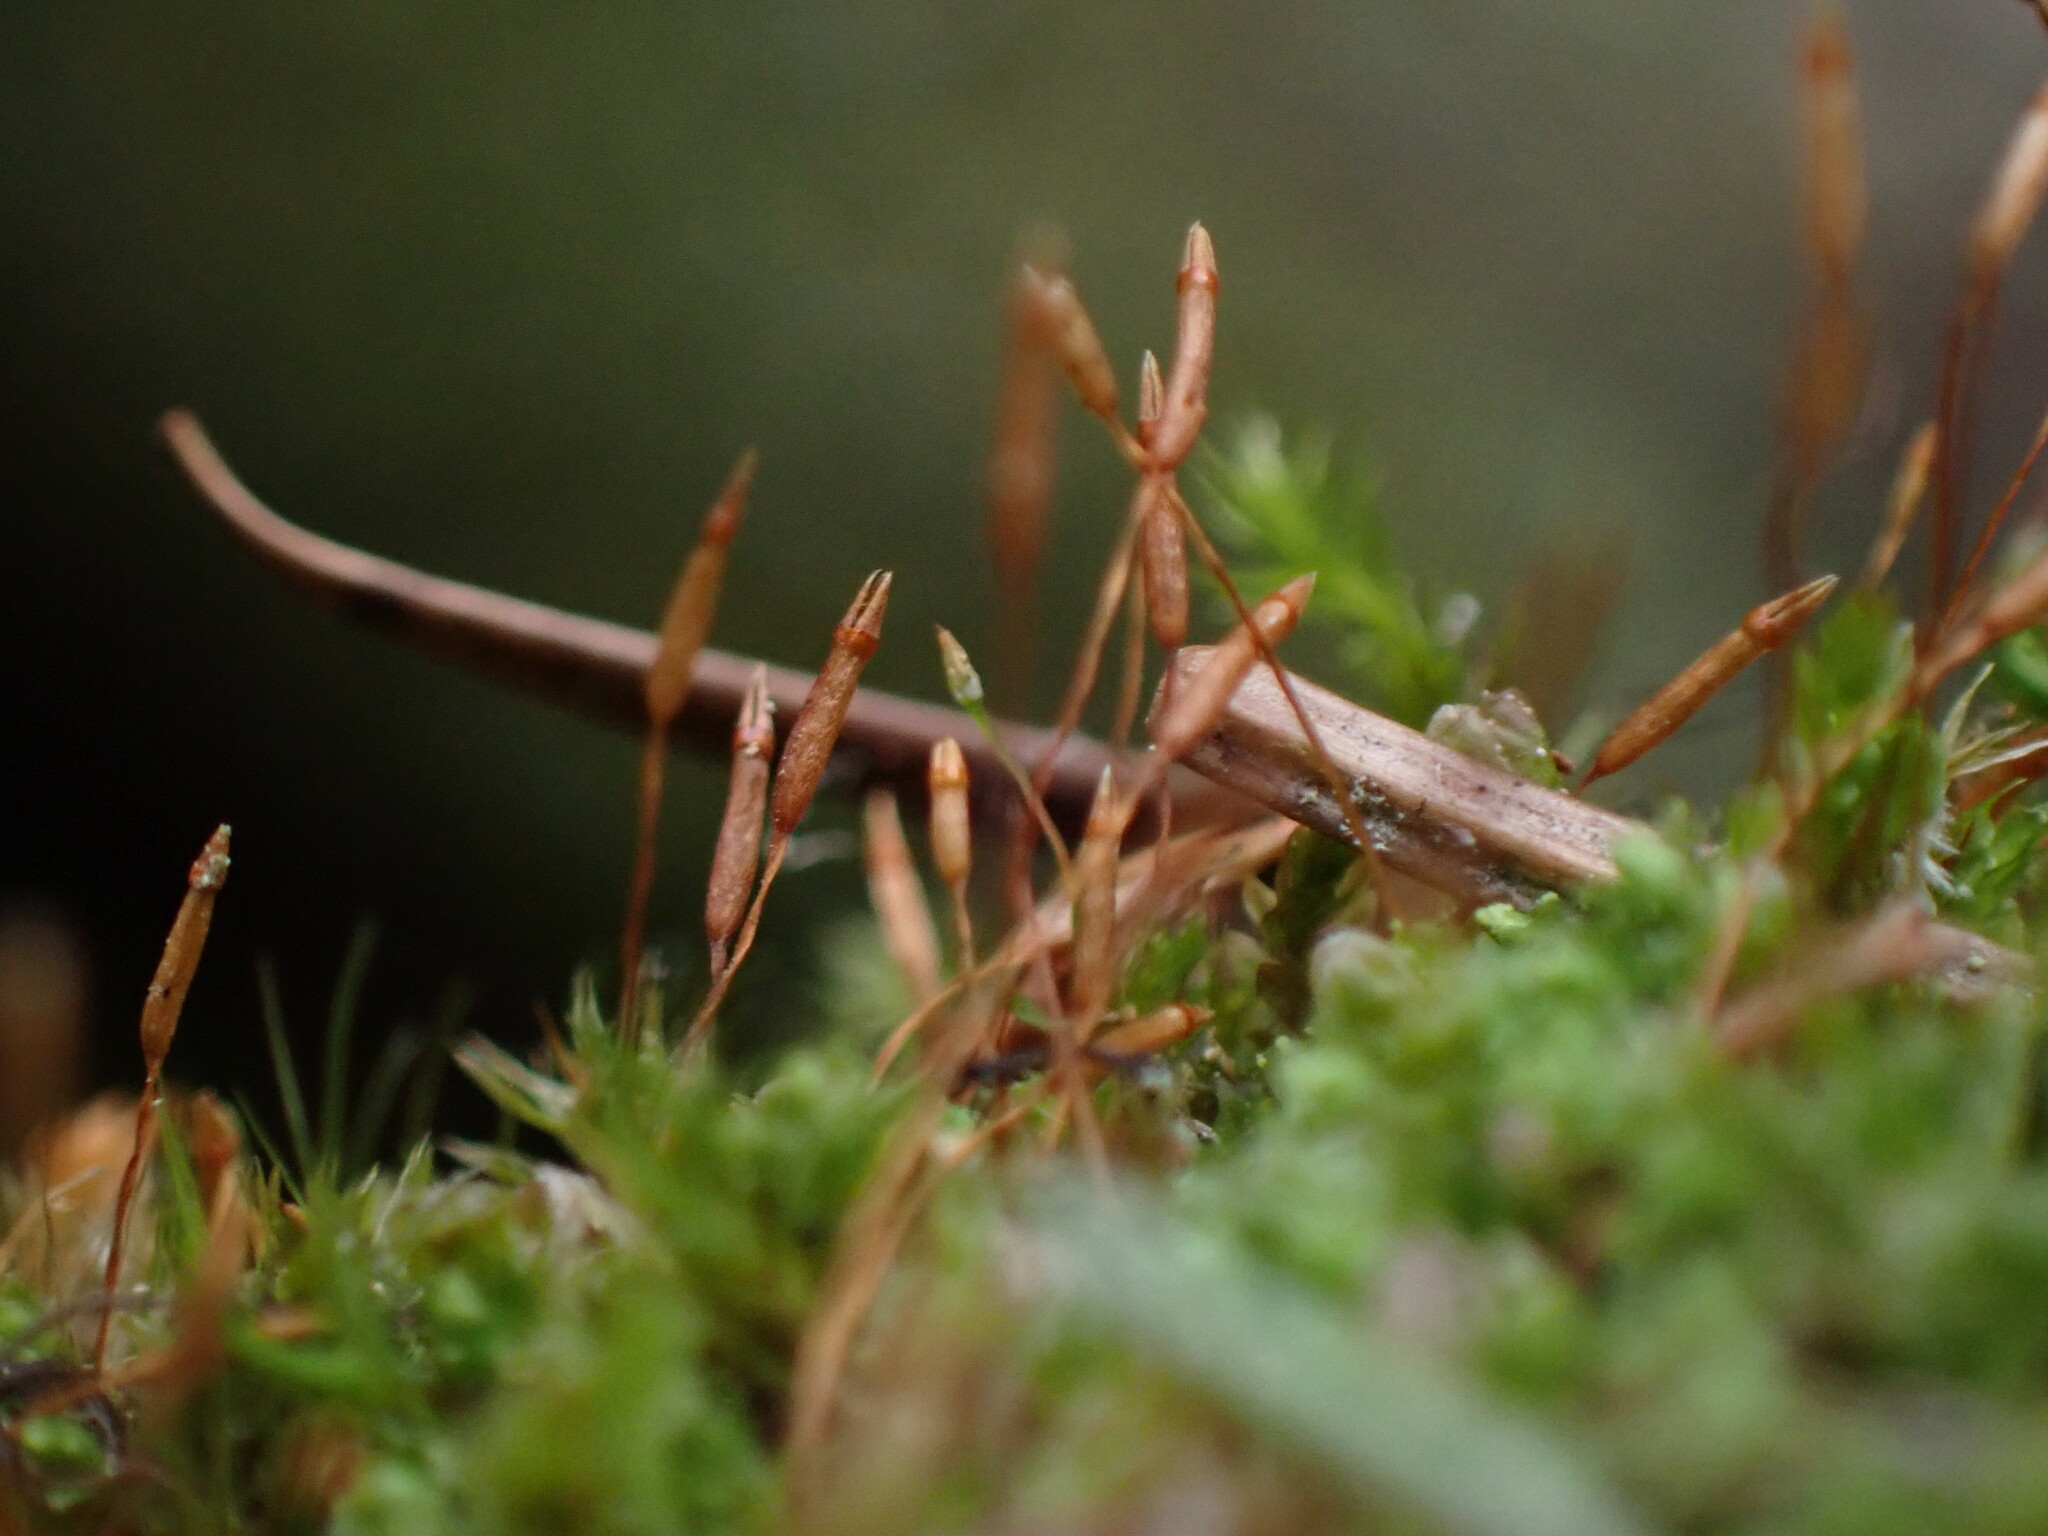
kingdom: Plantae
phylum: Bryophyta
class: Polytrichopsida
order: Tetraphidales
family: Tetraphidaceae
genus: Tetraphis
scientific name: Tetraphis pellucida
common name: Common four-toothed moss
